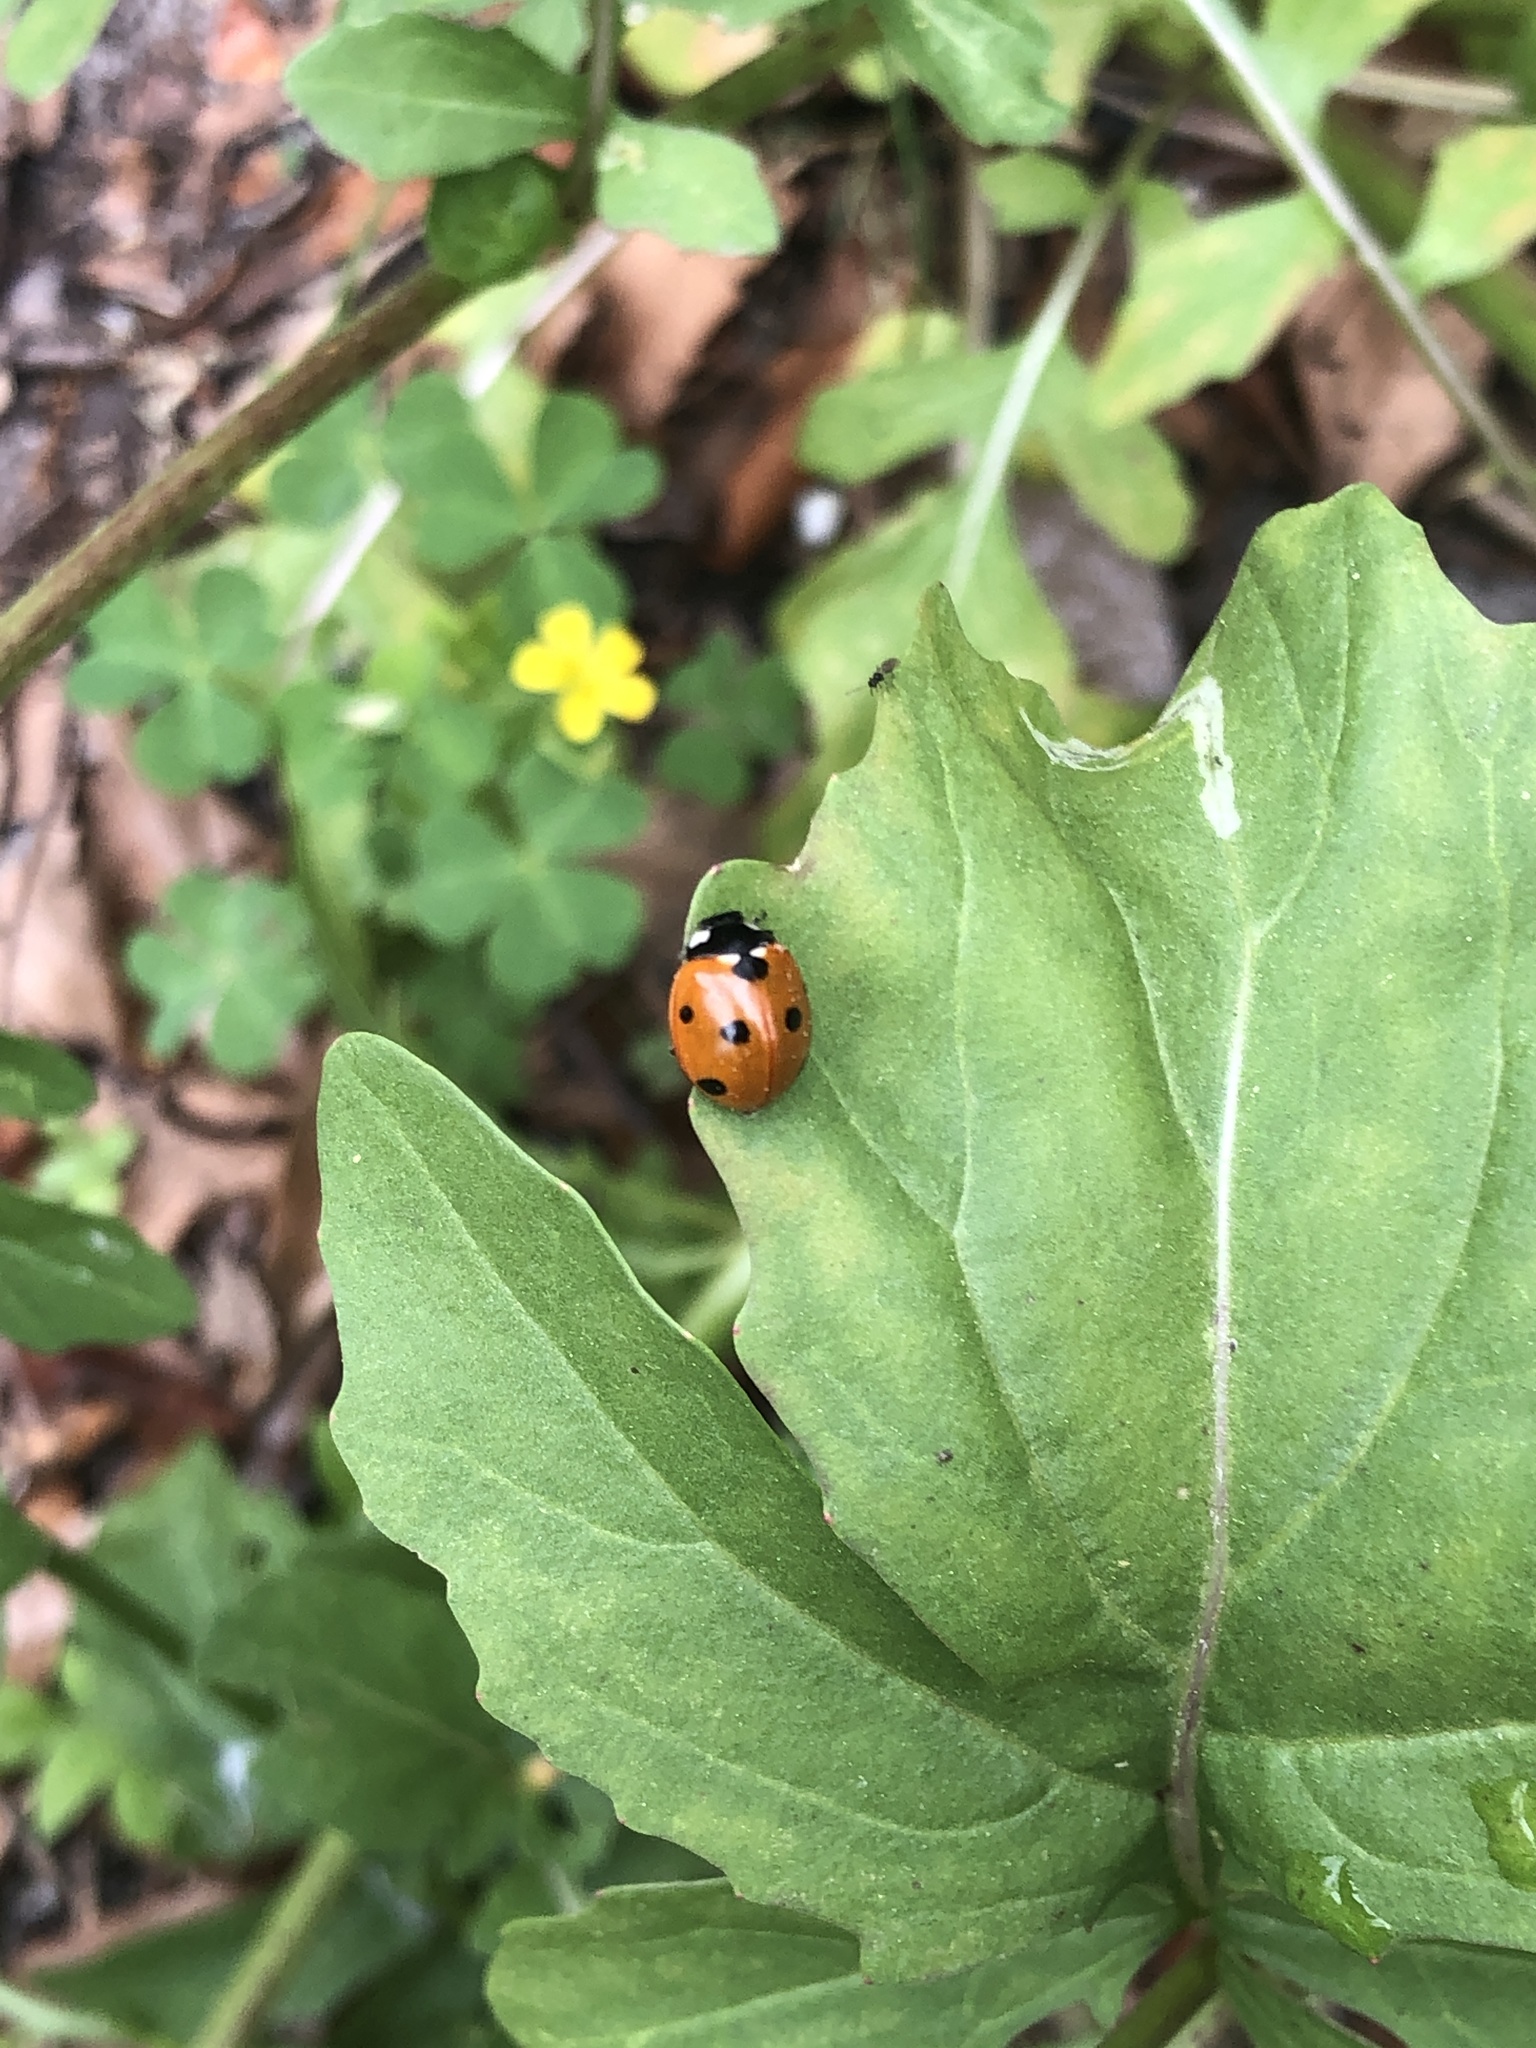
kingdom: Animalia
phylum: Arthropoda
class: Insecta
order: Coleoptera
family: Coccinellidae
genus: Coccinella
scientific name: Coccinella septempunctata
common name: Sevenspotted lady beetle
